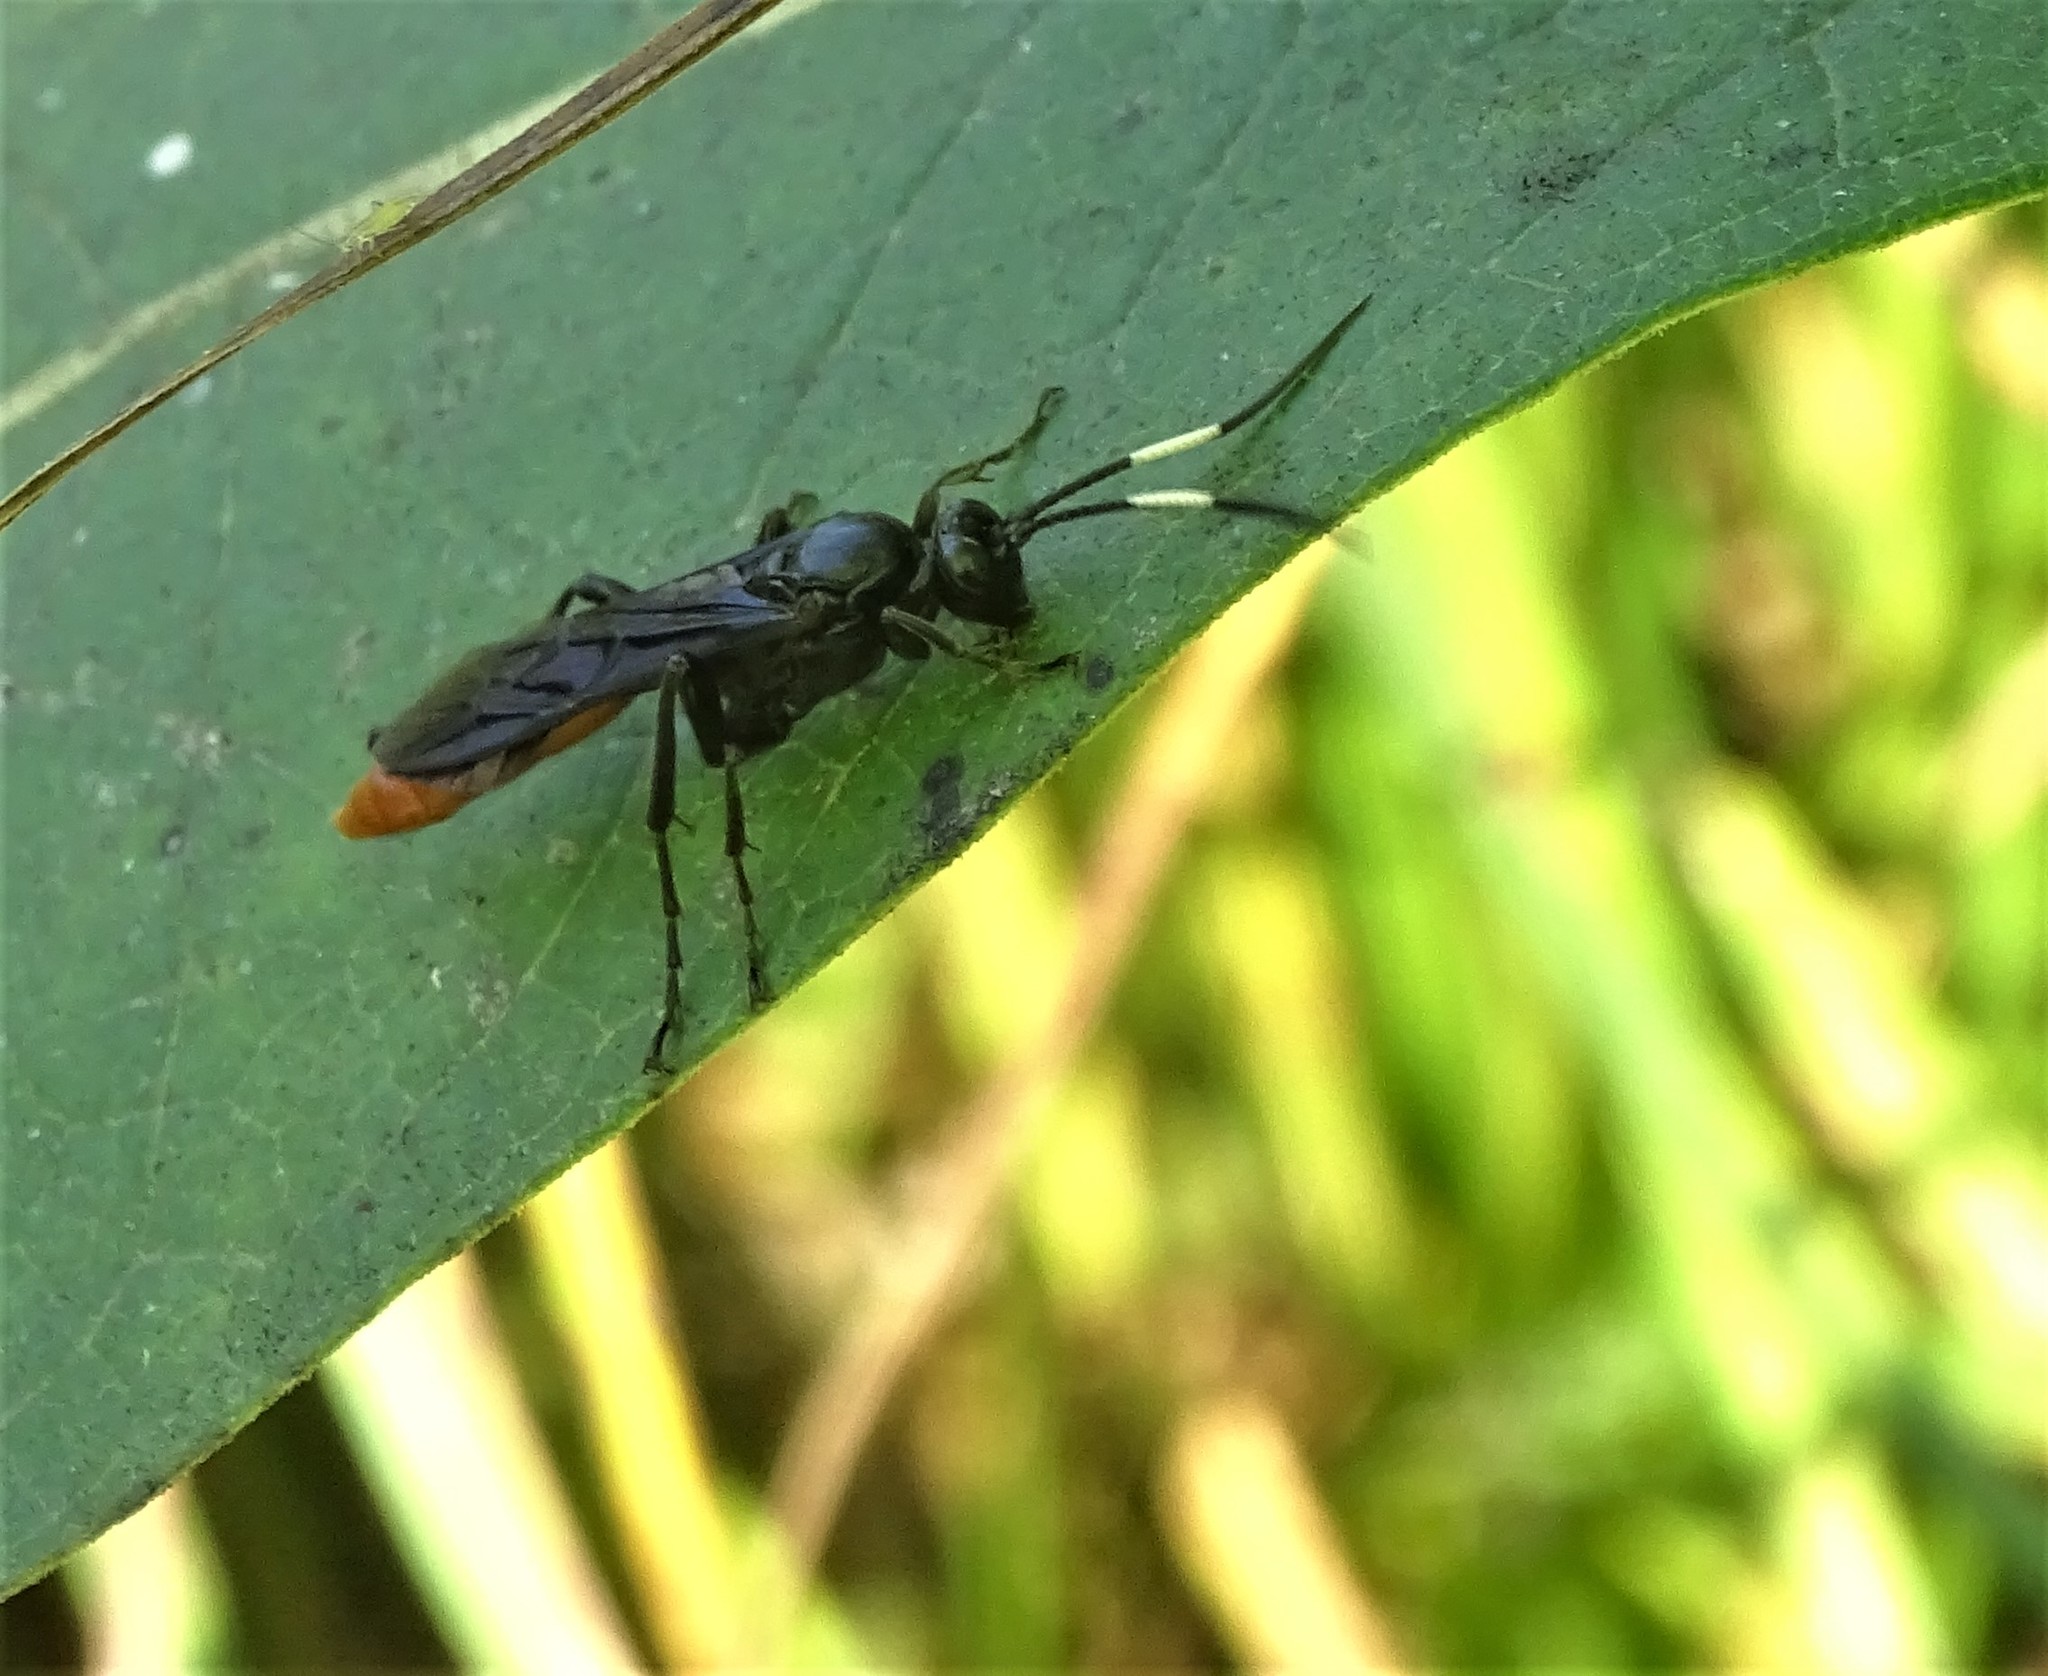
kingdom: Animalia
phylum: Arthropoda
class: Insecta
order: Hymenoptera
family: Ichneumonidae
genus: Protichneumon
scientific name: Protichneumon grandis
